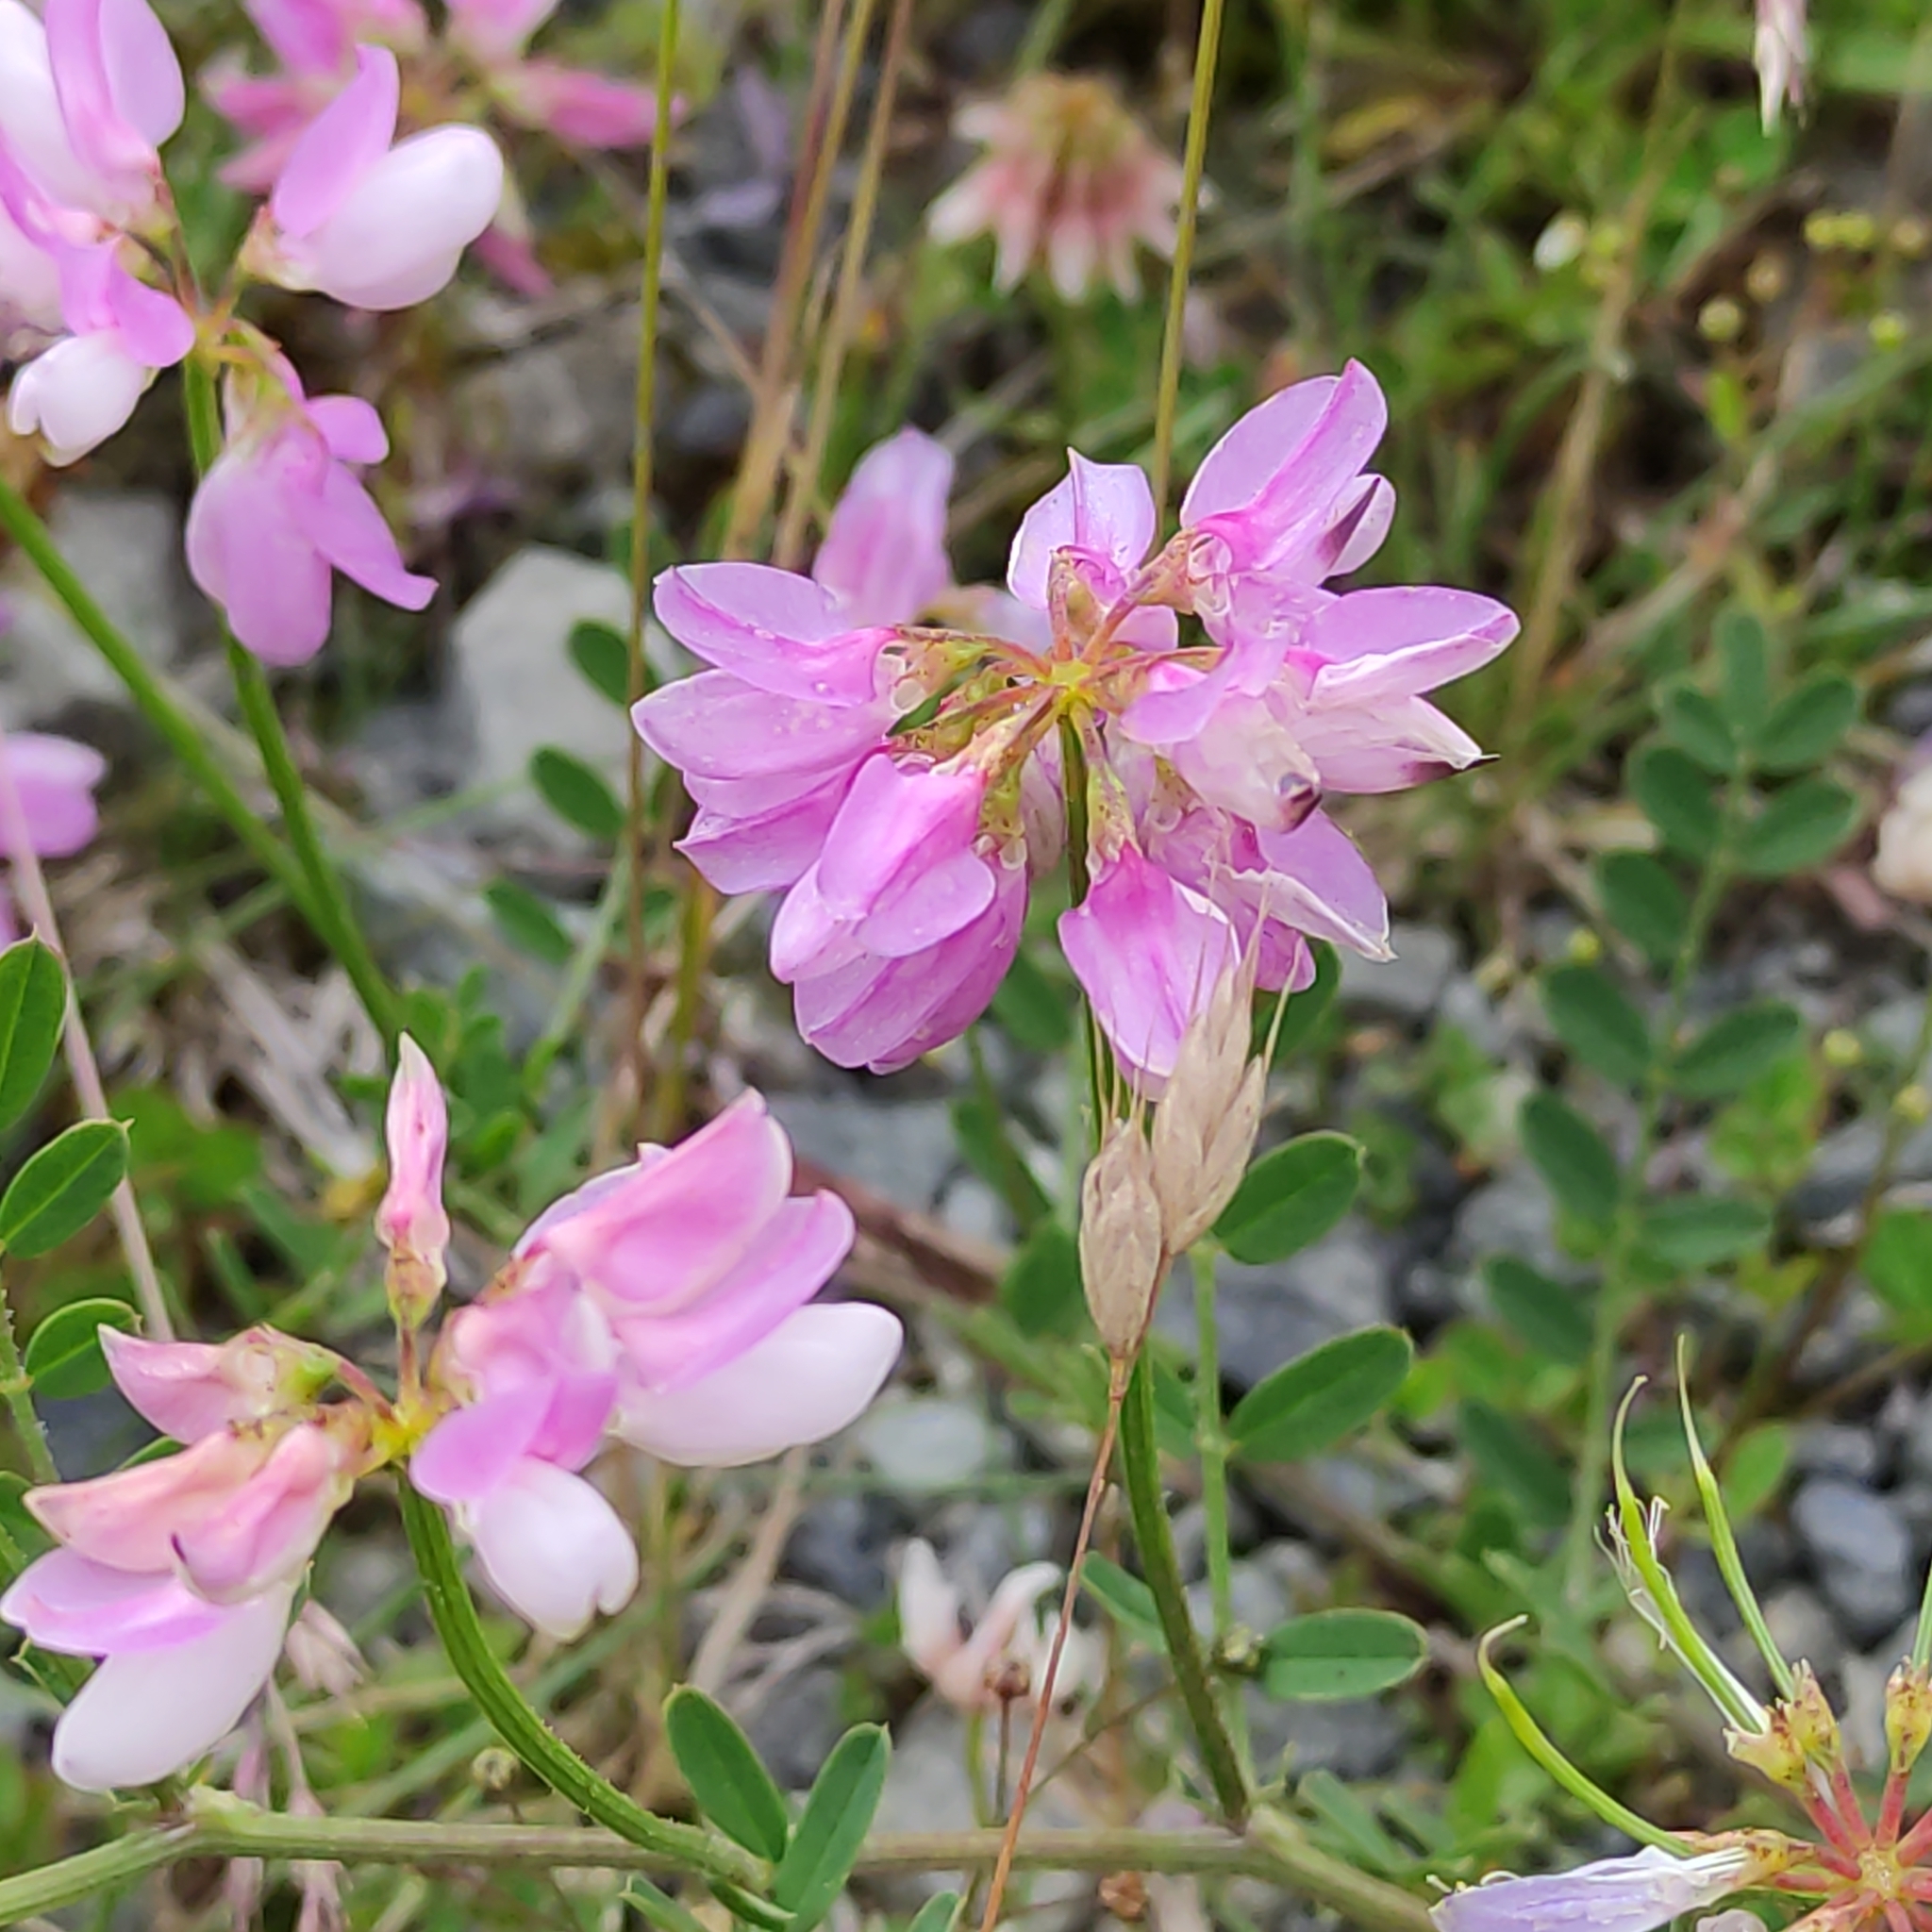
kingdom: Plantae
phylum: Tracheophyta
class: Magnoliopsida
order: Fabales
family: Fabaceae
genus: Coronilla
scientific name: Coronilla varia
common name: Crownvetch
